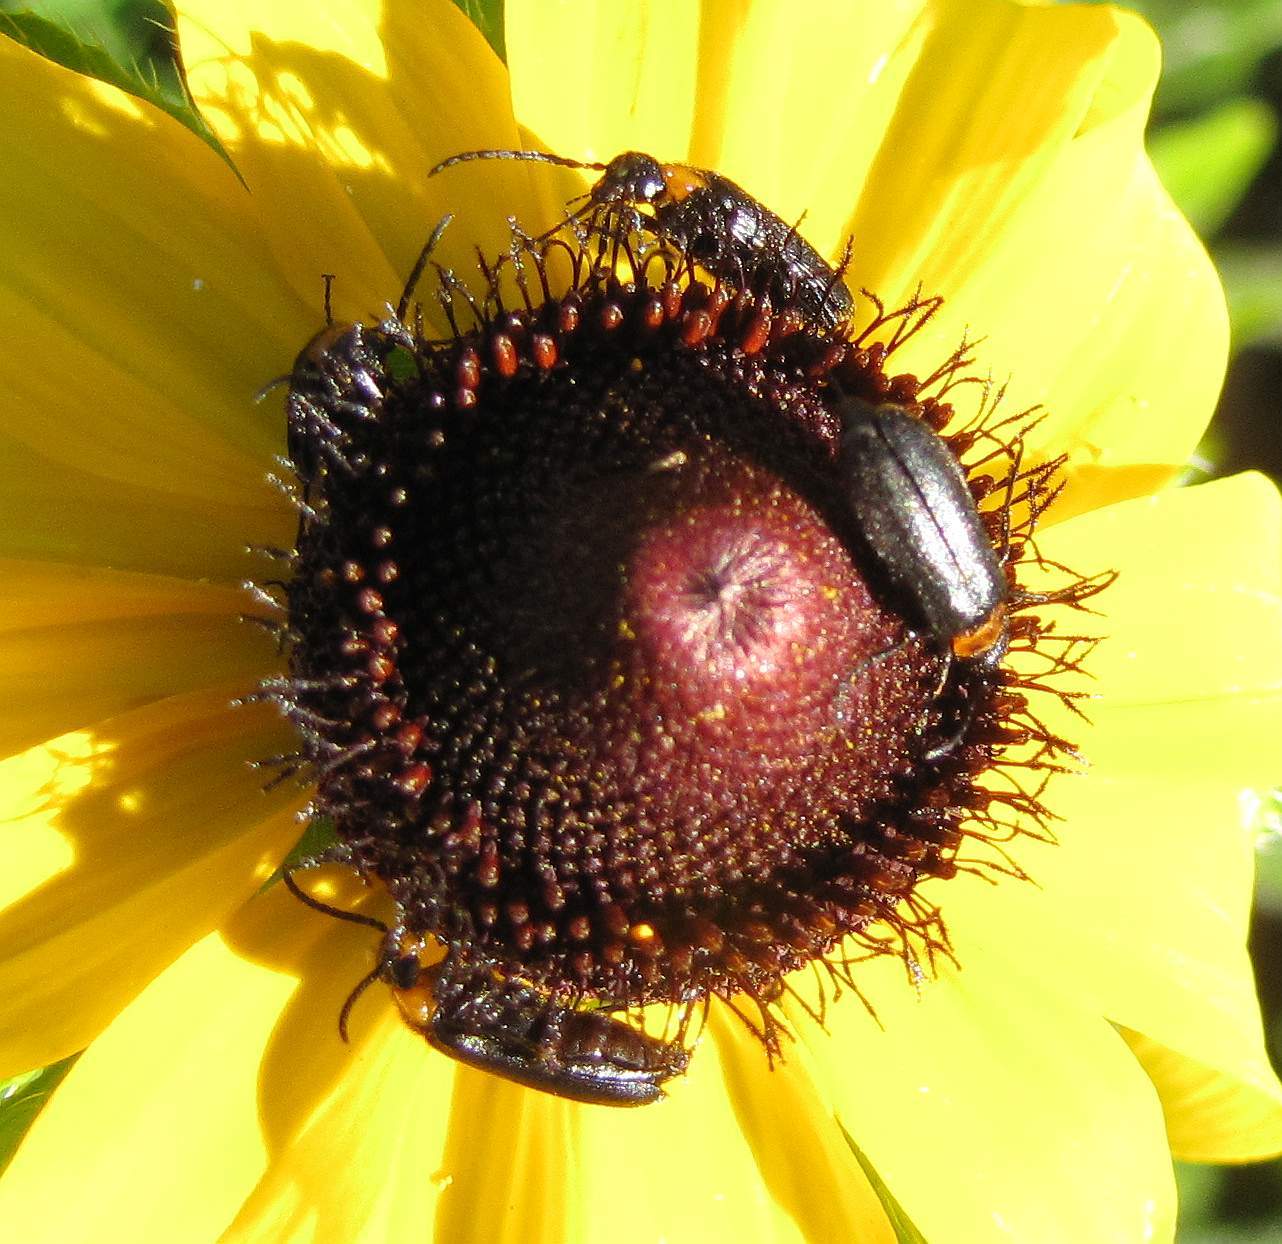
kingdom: Animalia
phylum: Arthropoda
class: Insecta
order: Coleoptera
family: Meloidae
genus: Nemognatha
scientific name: Nemognatha nemorensis
